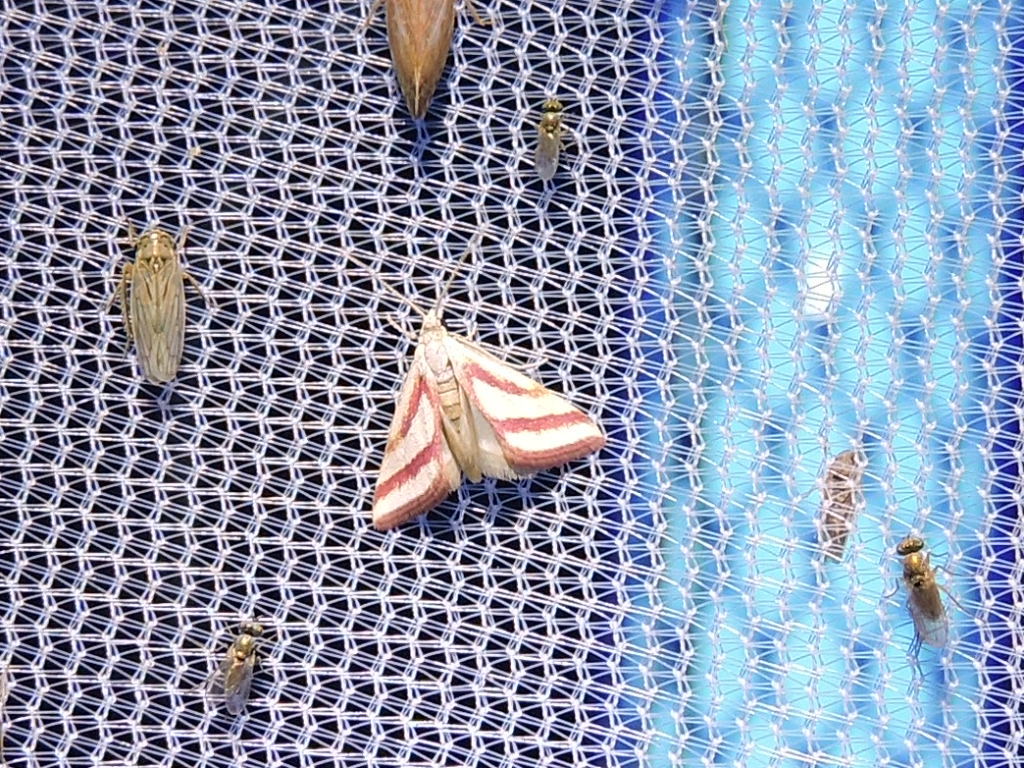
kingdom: Animalia
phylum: Arthropoda
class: Insecta
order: Lepidoptera
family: Crambidae
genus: Microtheoris
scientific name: Microtheoris vibicalis
